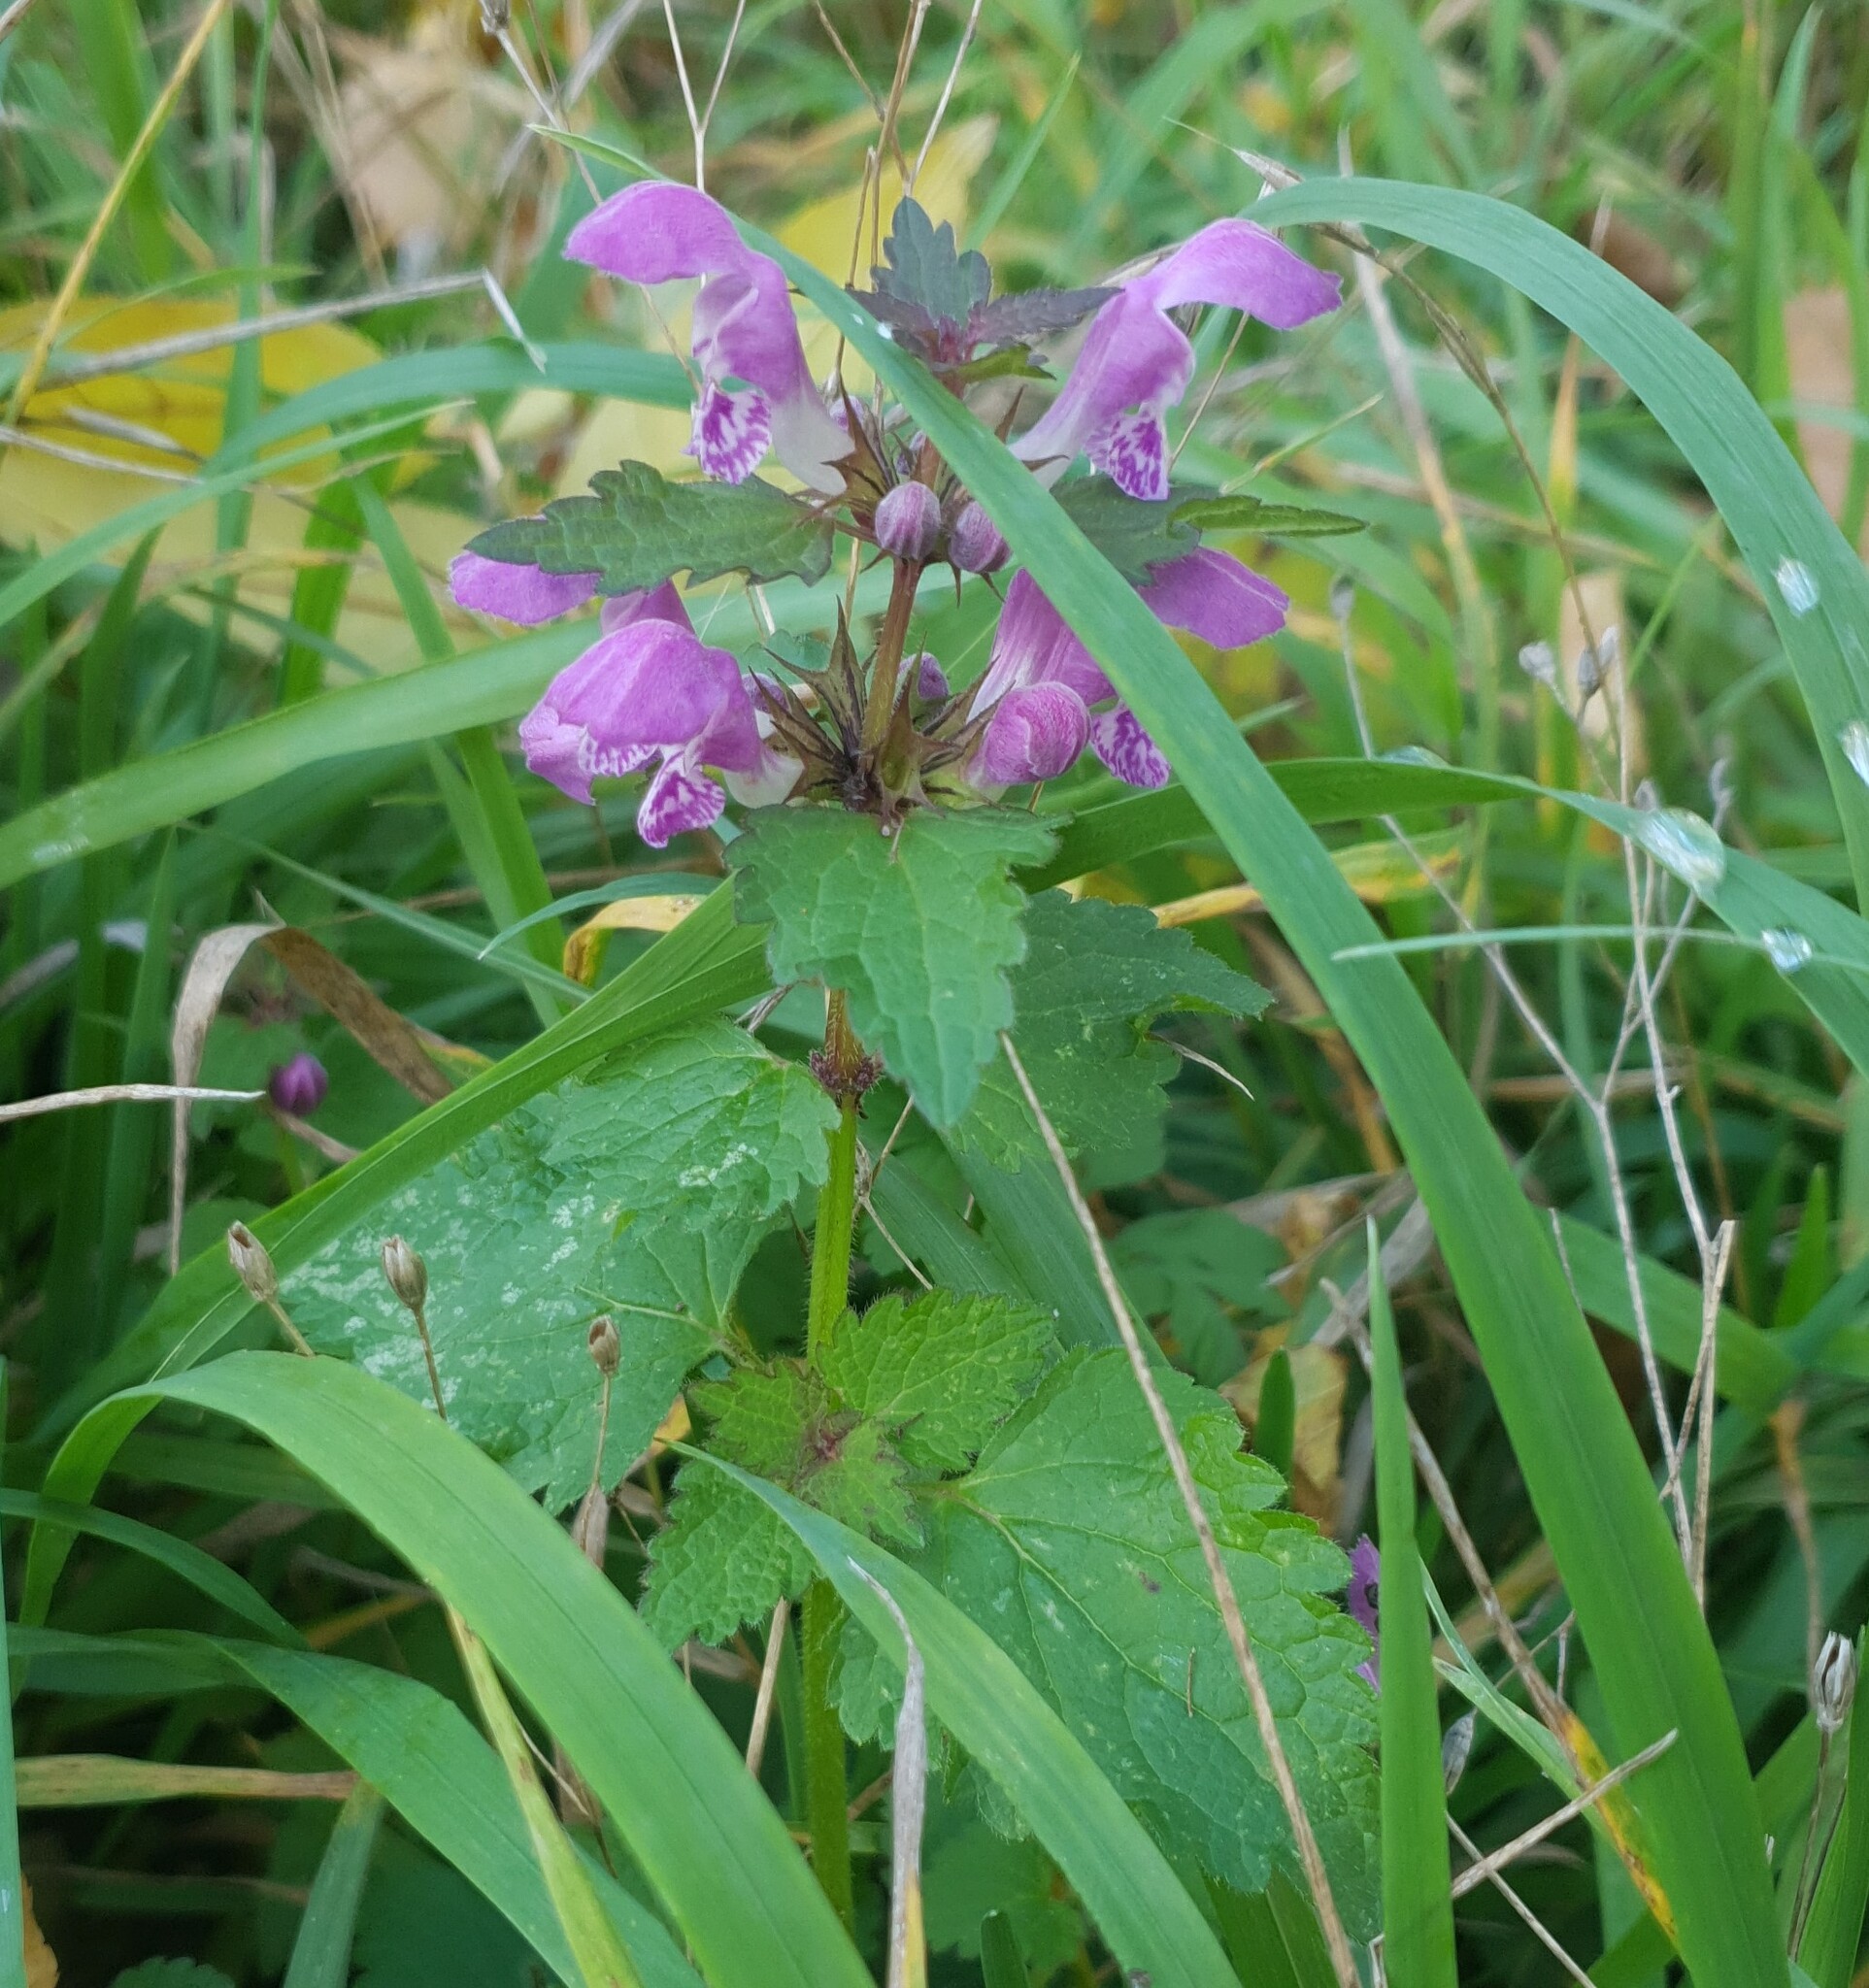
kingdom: Plantae
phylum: Tracheophyta
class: Magnoliopsida
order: Lamiales
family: Lamiaceae
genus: Lamium
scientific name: Lamium maculatum
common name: Spotted dead-nettle
